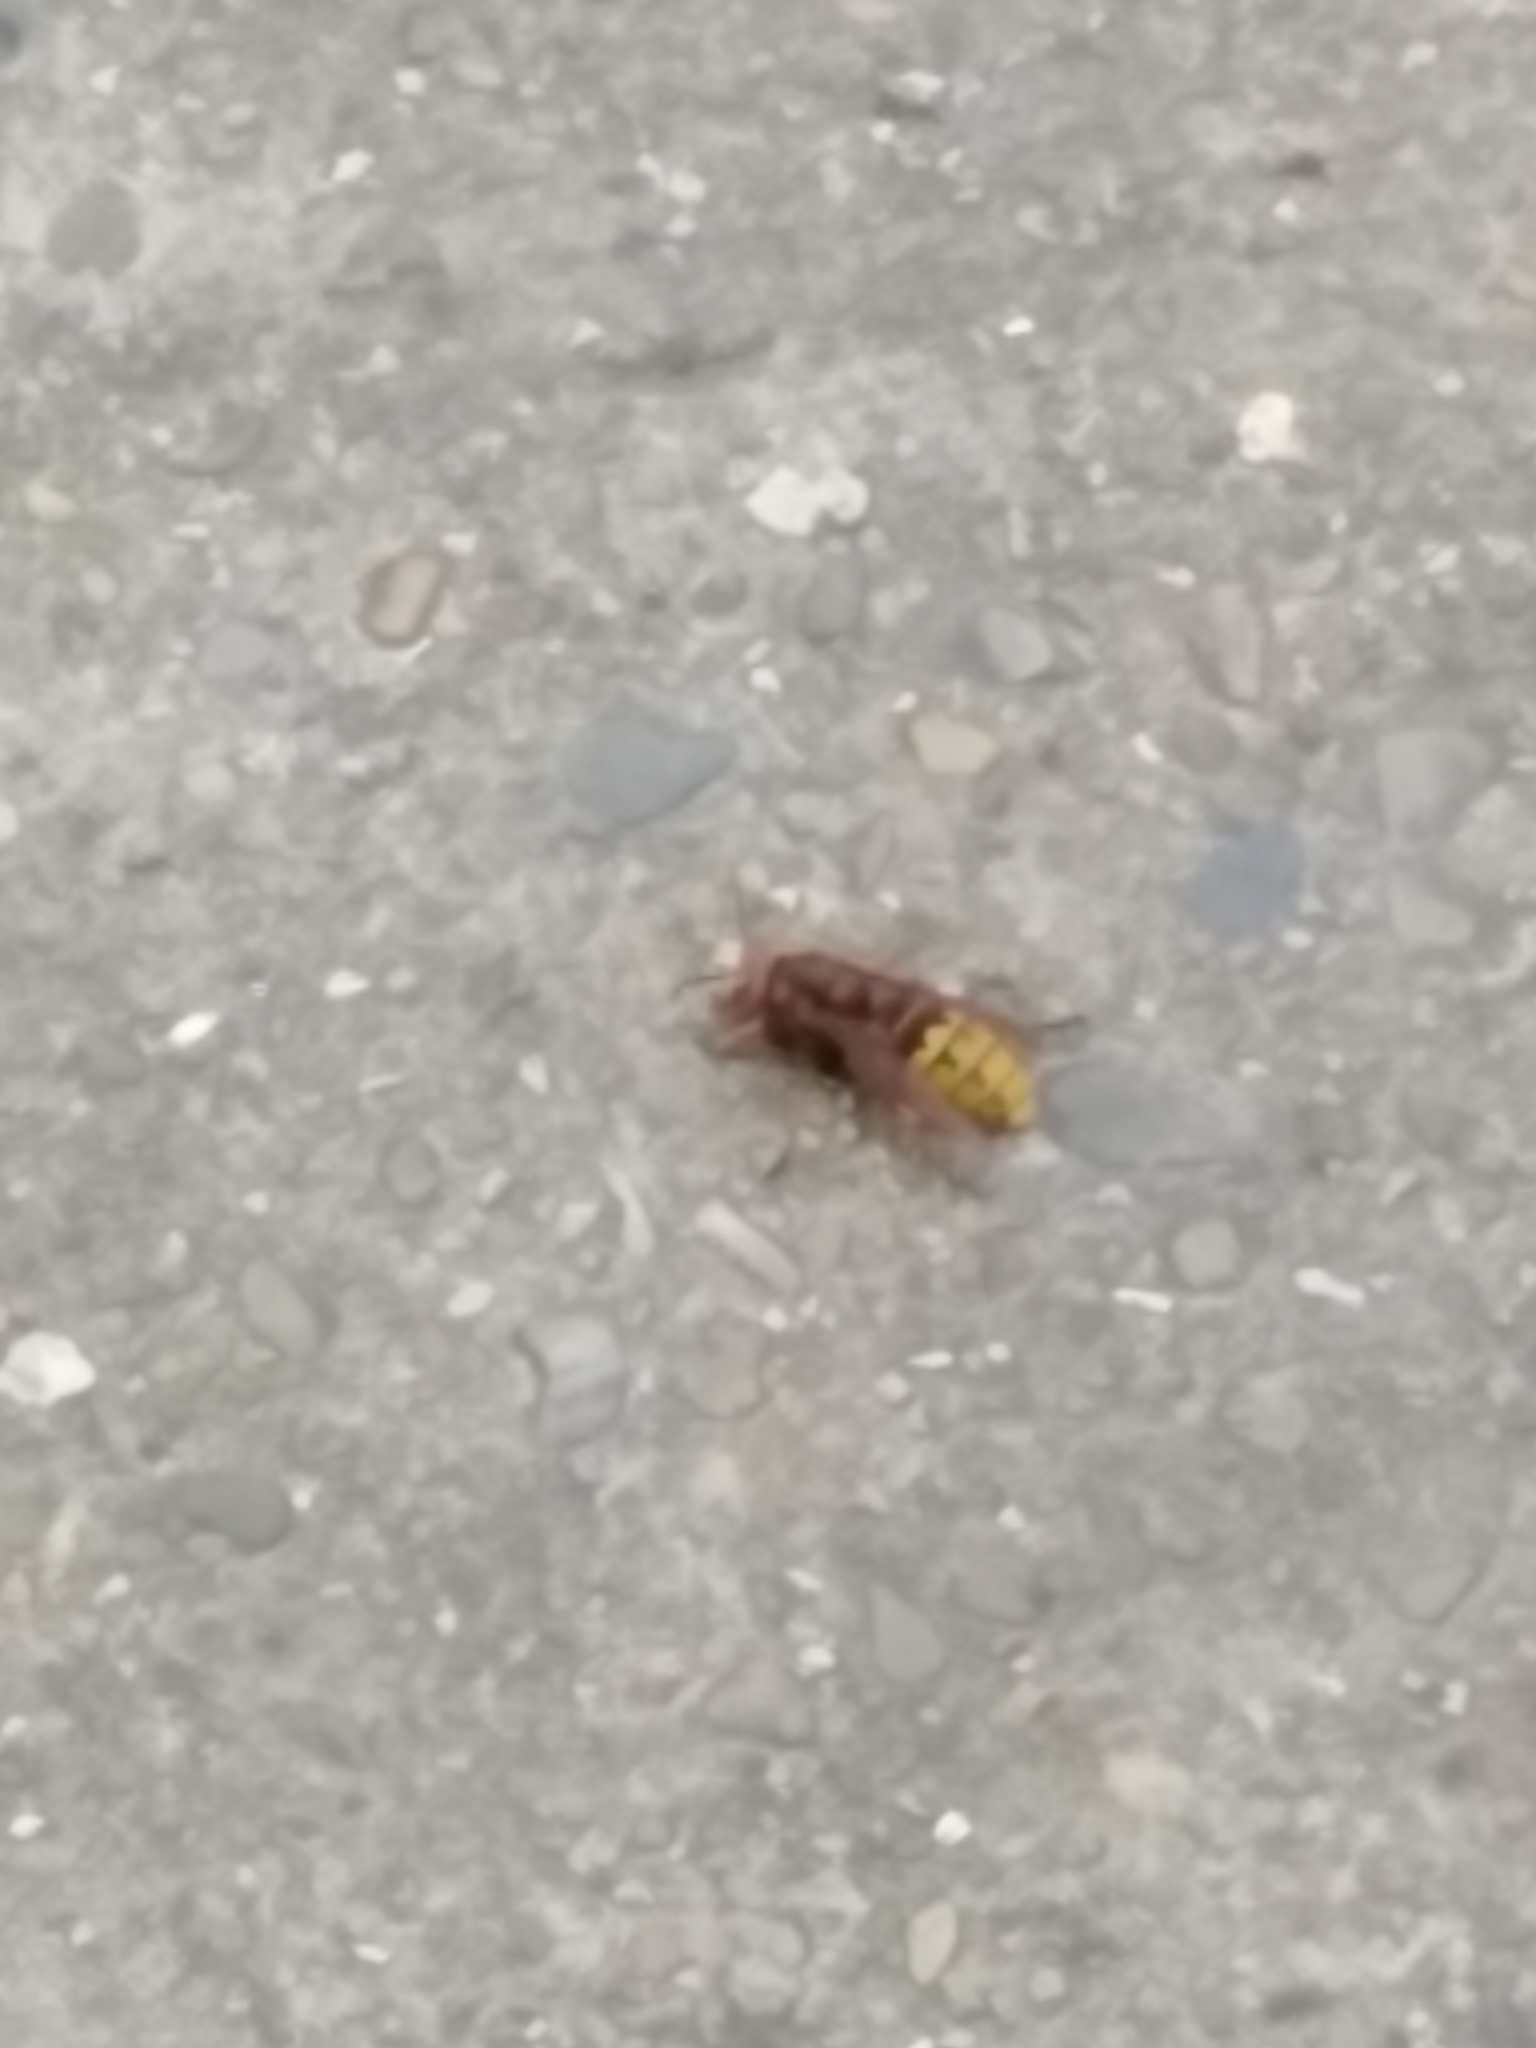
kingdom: Animalia
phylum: Arthropoda
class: Insecta
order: Hymenoptera
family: Vespidae
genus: Vespa
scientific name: Vespa crabro
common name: Hornet
